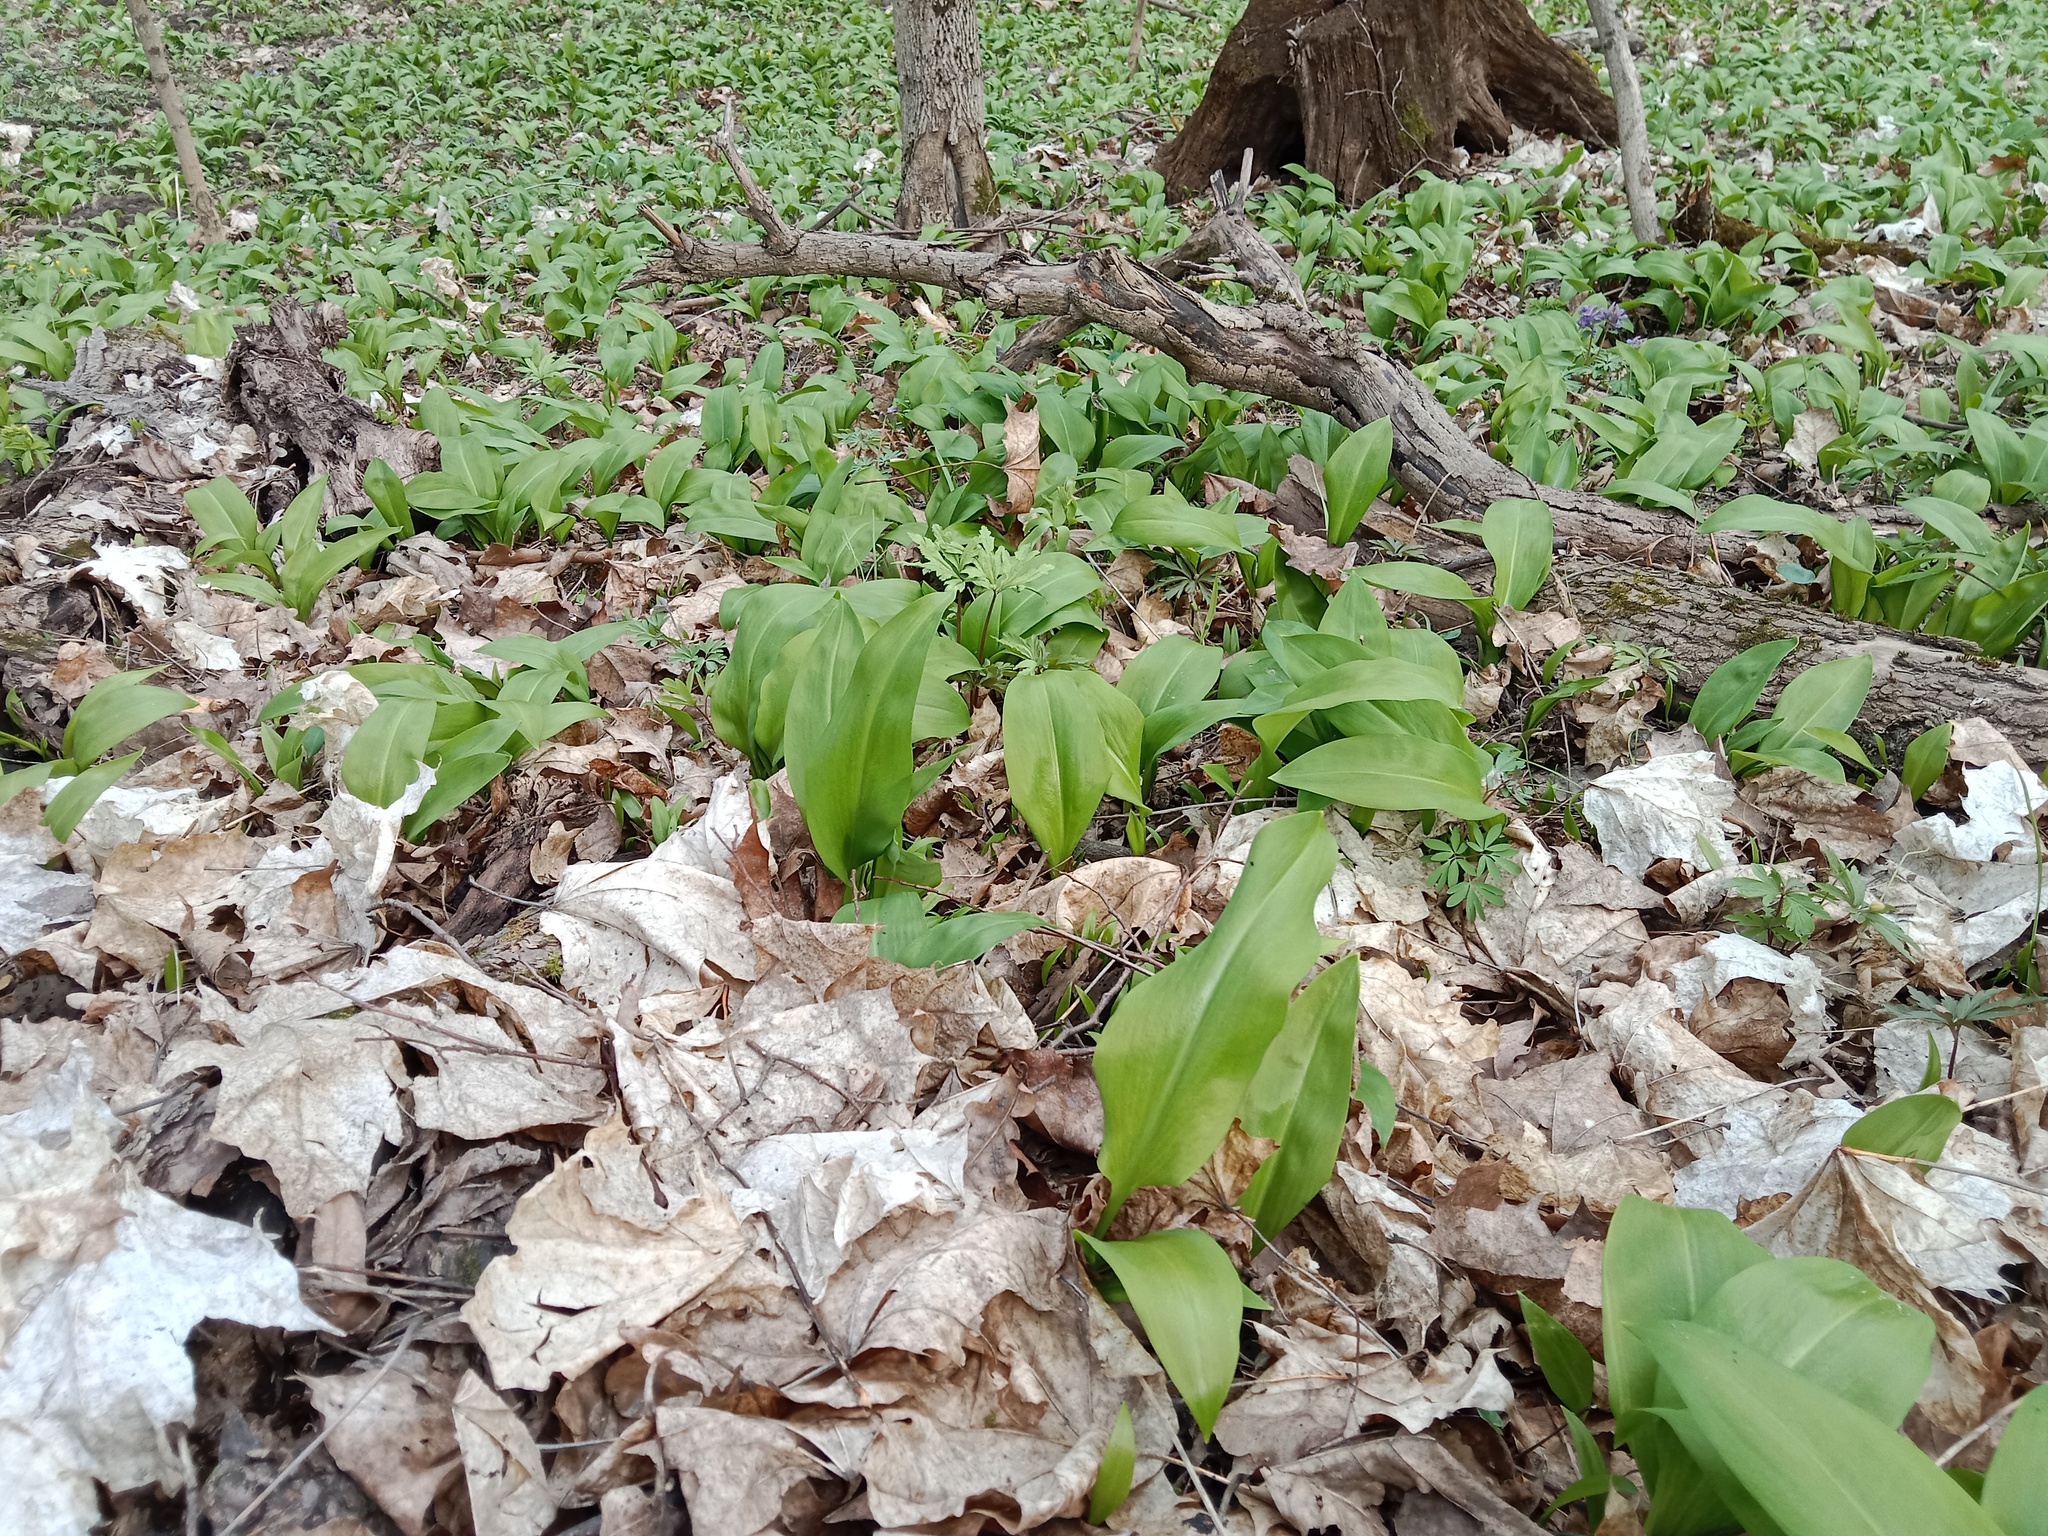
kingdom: Plantae
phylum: Tracheophyta
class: Liliopsida
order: Asparagales
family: Amaryllidaceae
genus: Allium
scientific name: Allium ursinum
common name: Ramsons
